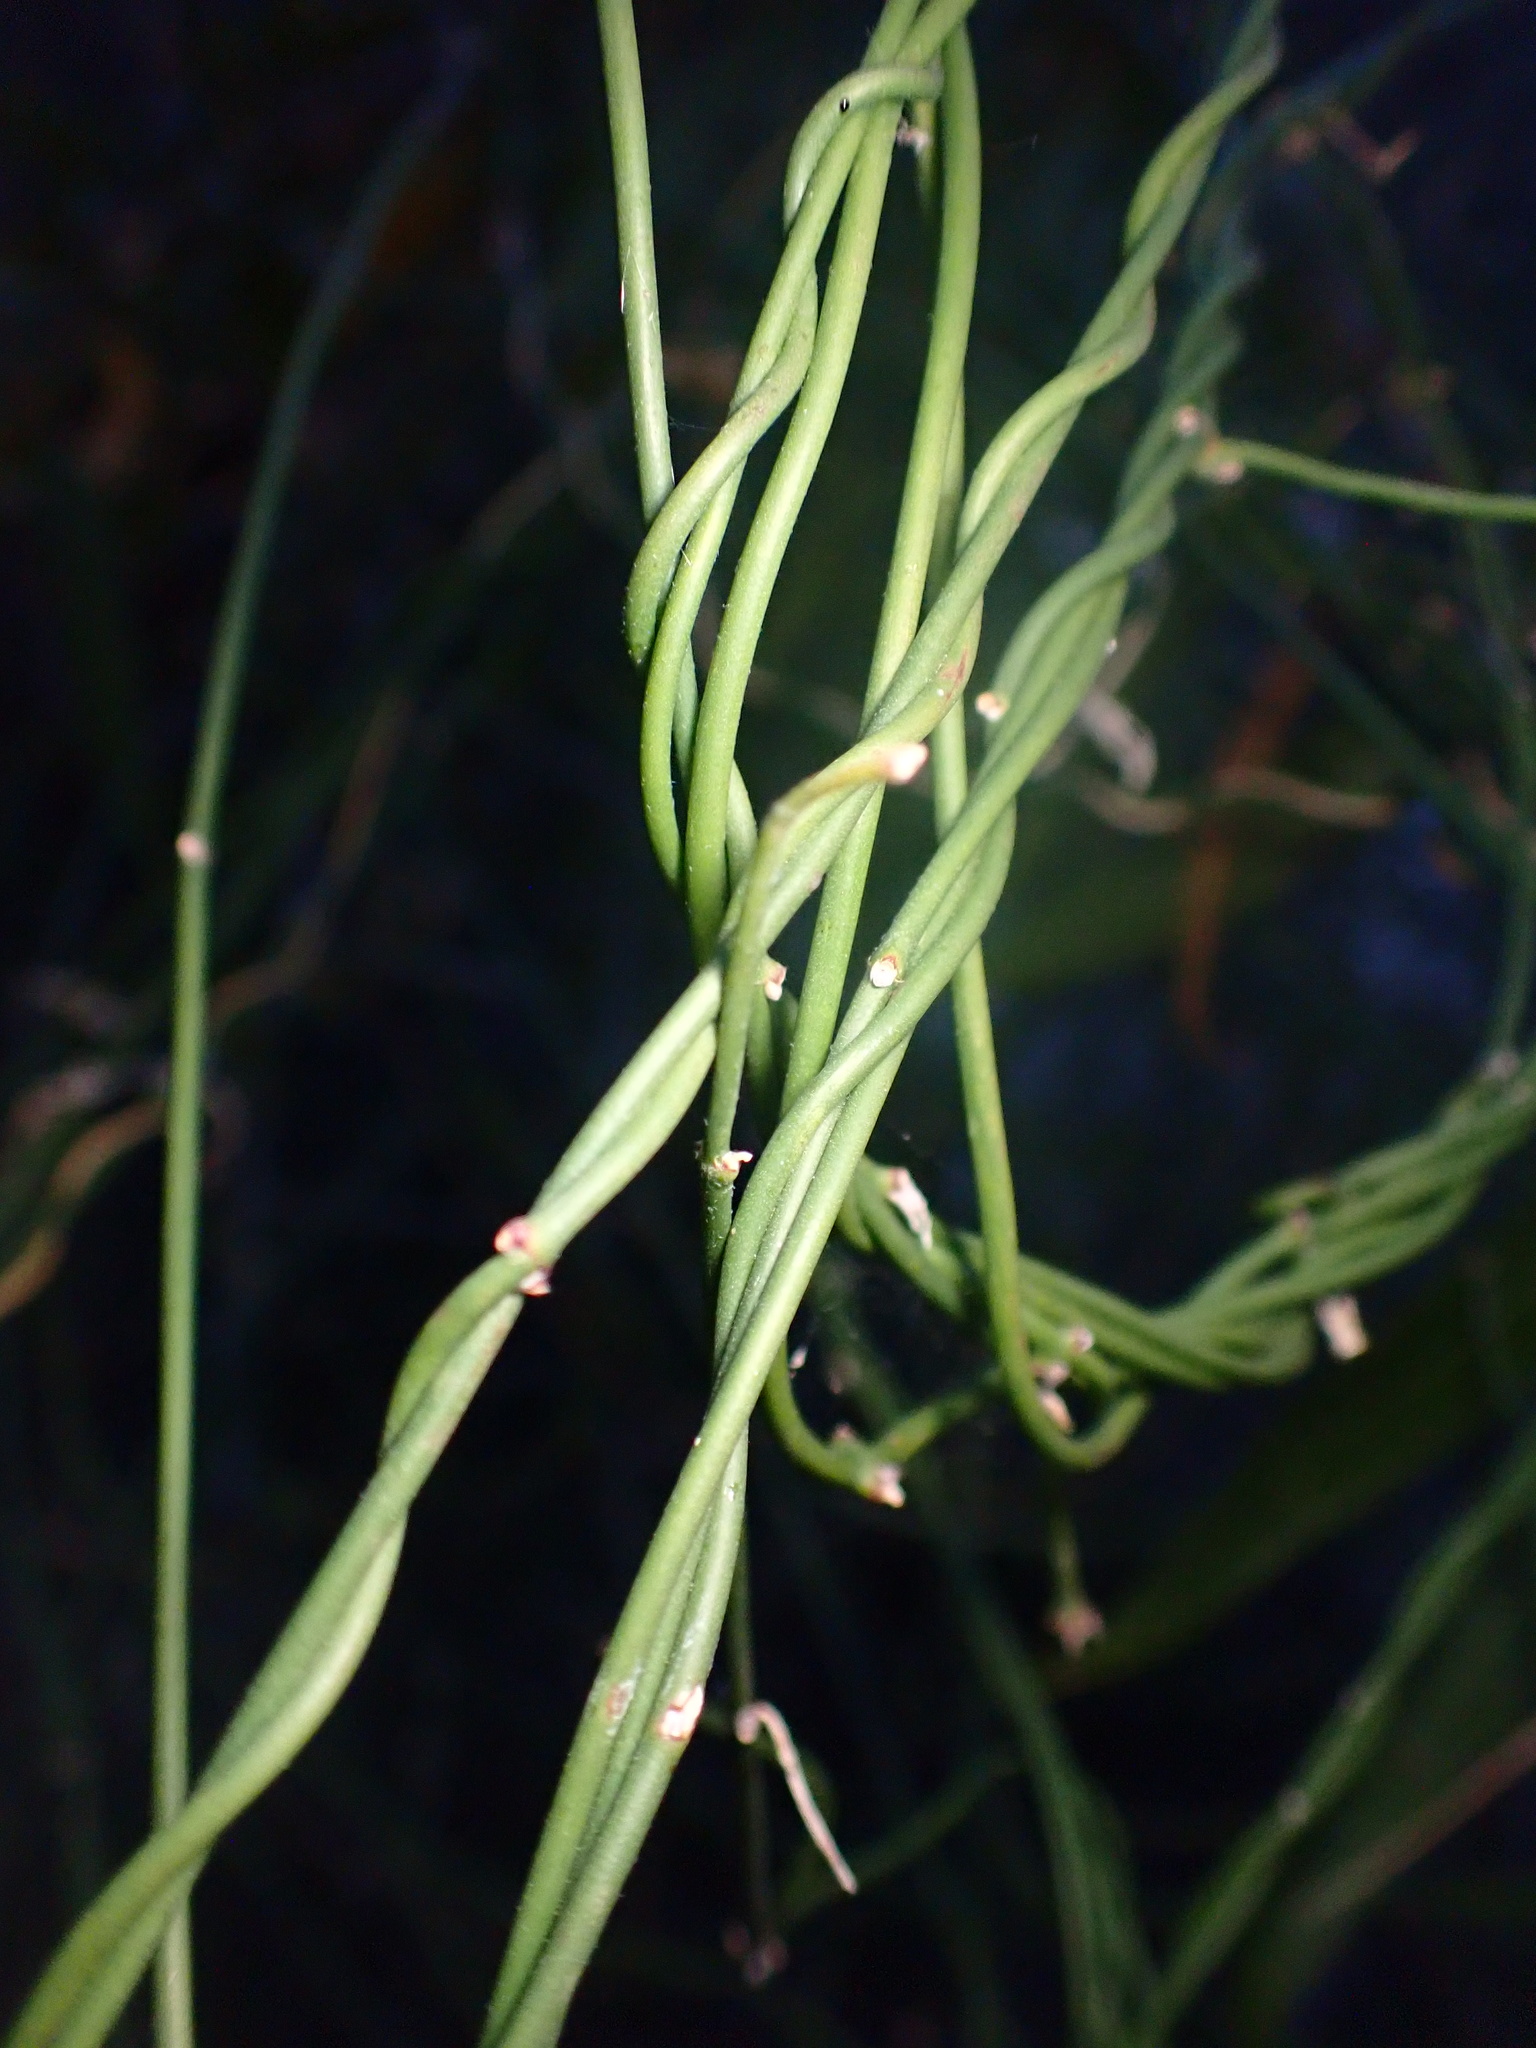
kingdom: Plantae
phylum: Tracheophyta
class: Magnoliopsida
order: Gentianales
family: Apocynaceae
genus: Funastrum
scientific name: Funastrum heterophyllum
